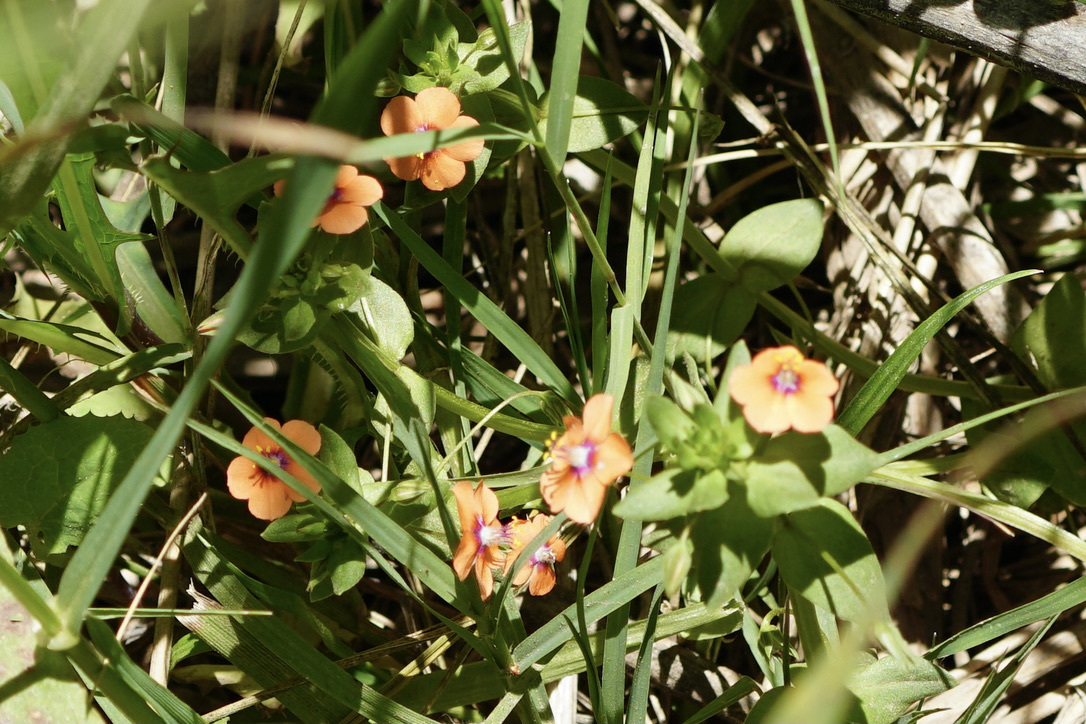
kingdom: Plantae
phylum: Tracheophyta
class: Magnoliopsida
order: Ericales
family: Primulaceae
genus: Lysimachia
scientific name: Lysimachia arvensis
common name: Scarlet pimpernel
